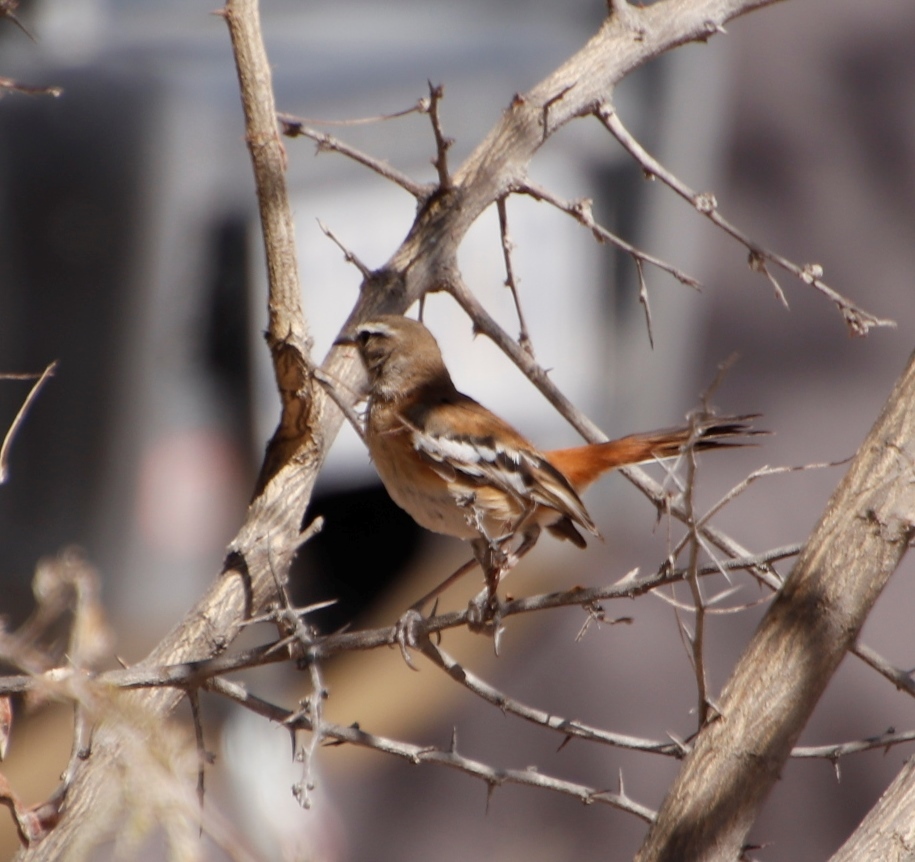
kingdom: Animalia
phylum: Chordata
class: Aves
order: Passeriformes
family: Muscicapidae
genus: Erythropygia
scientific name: Erythropygia leucophrys
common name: White-browed scrub robin
